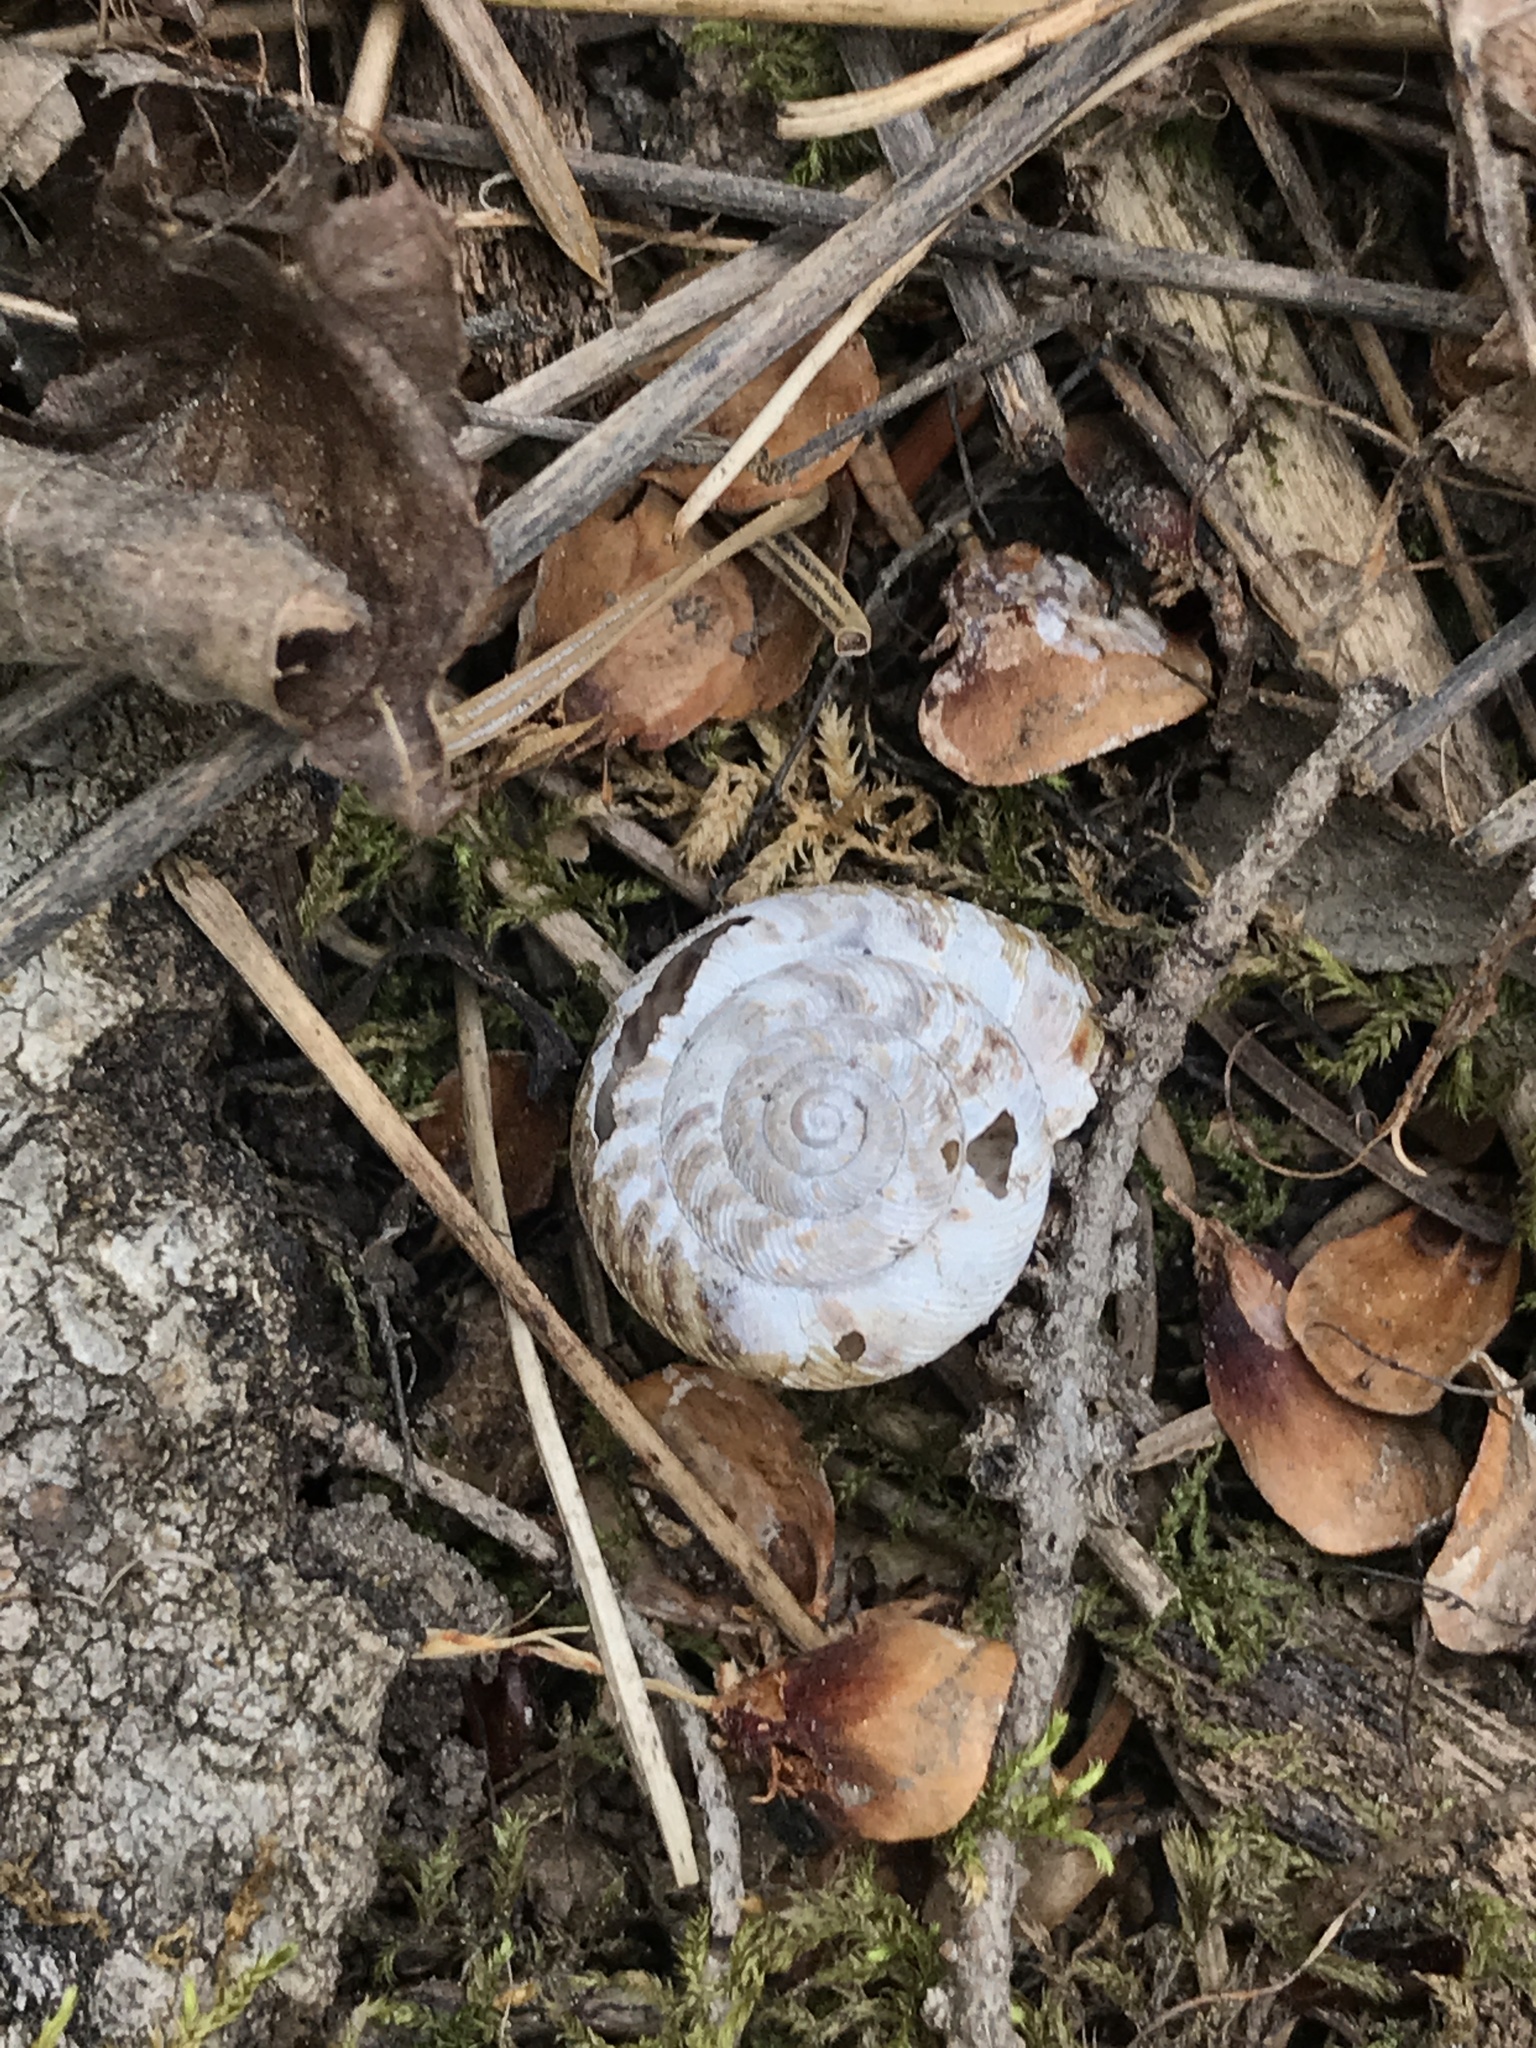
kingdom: Animalia
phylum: Mollusca
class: Gastropoda
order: Stylommatophora
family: Discidae
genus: Anguispira
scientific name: Anguispira alternata
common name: Flamed tigersnail
